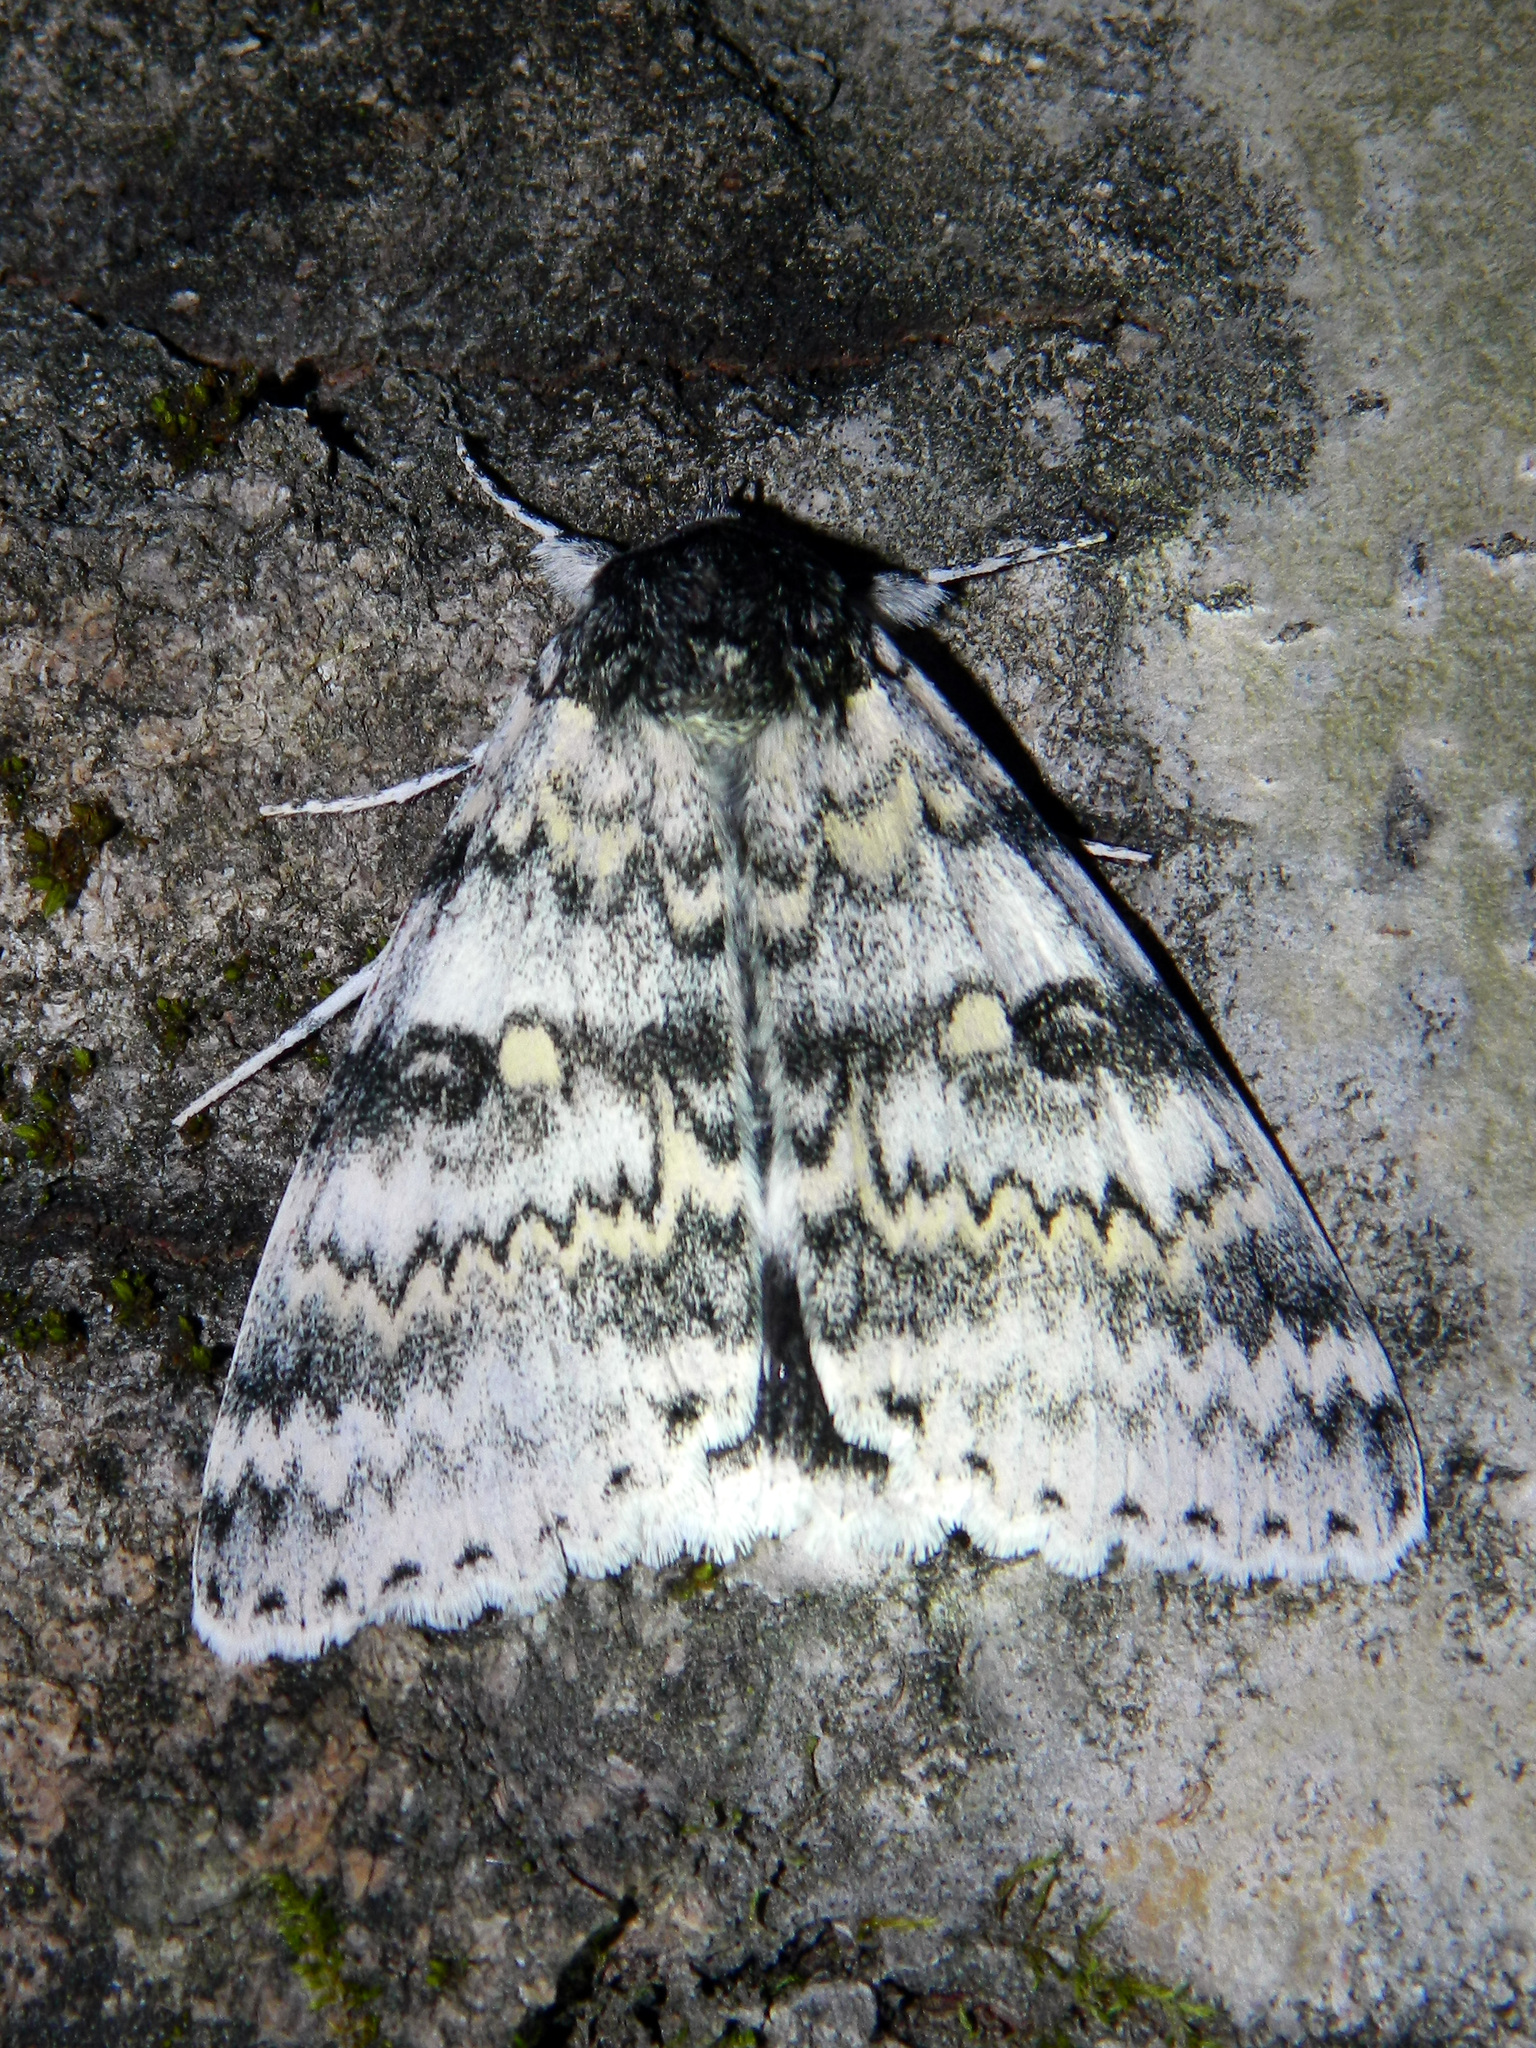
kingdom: Animalia
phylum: Arthropoda
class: Insecta
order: Lepidoptera
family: Erebidae
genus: Catocala
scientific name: Catocala relicta
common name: White underwing
